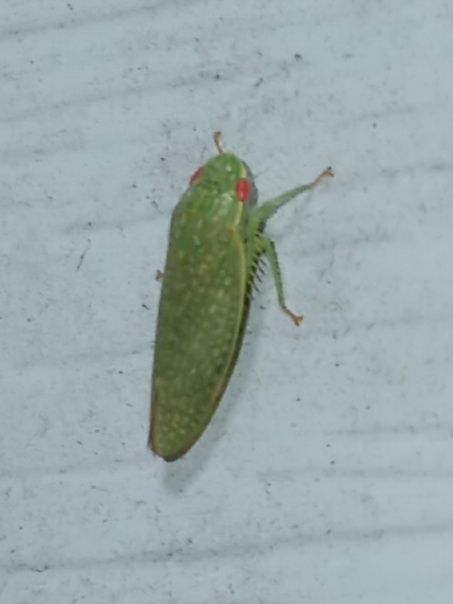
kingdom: Animalia
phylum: Arthropoda
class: Insecta
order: Hemiptera
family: Cicadellidae
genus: Rugosana
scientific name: Rugosana querci
